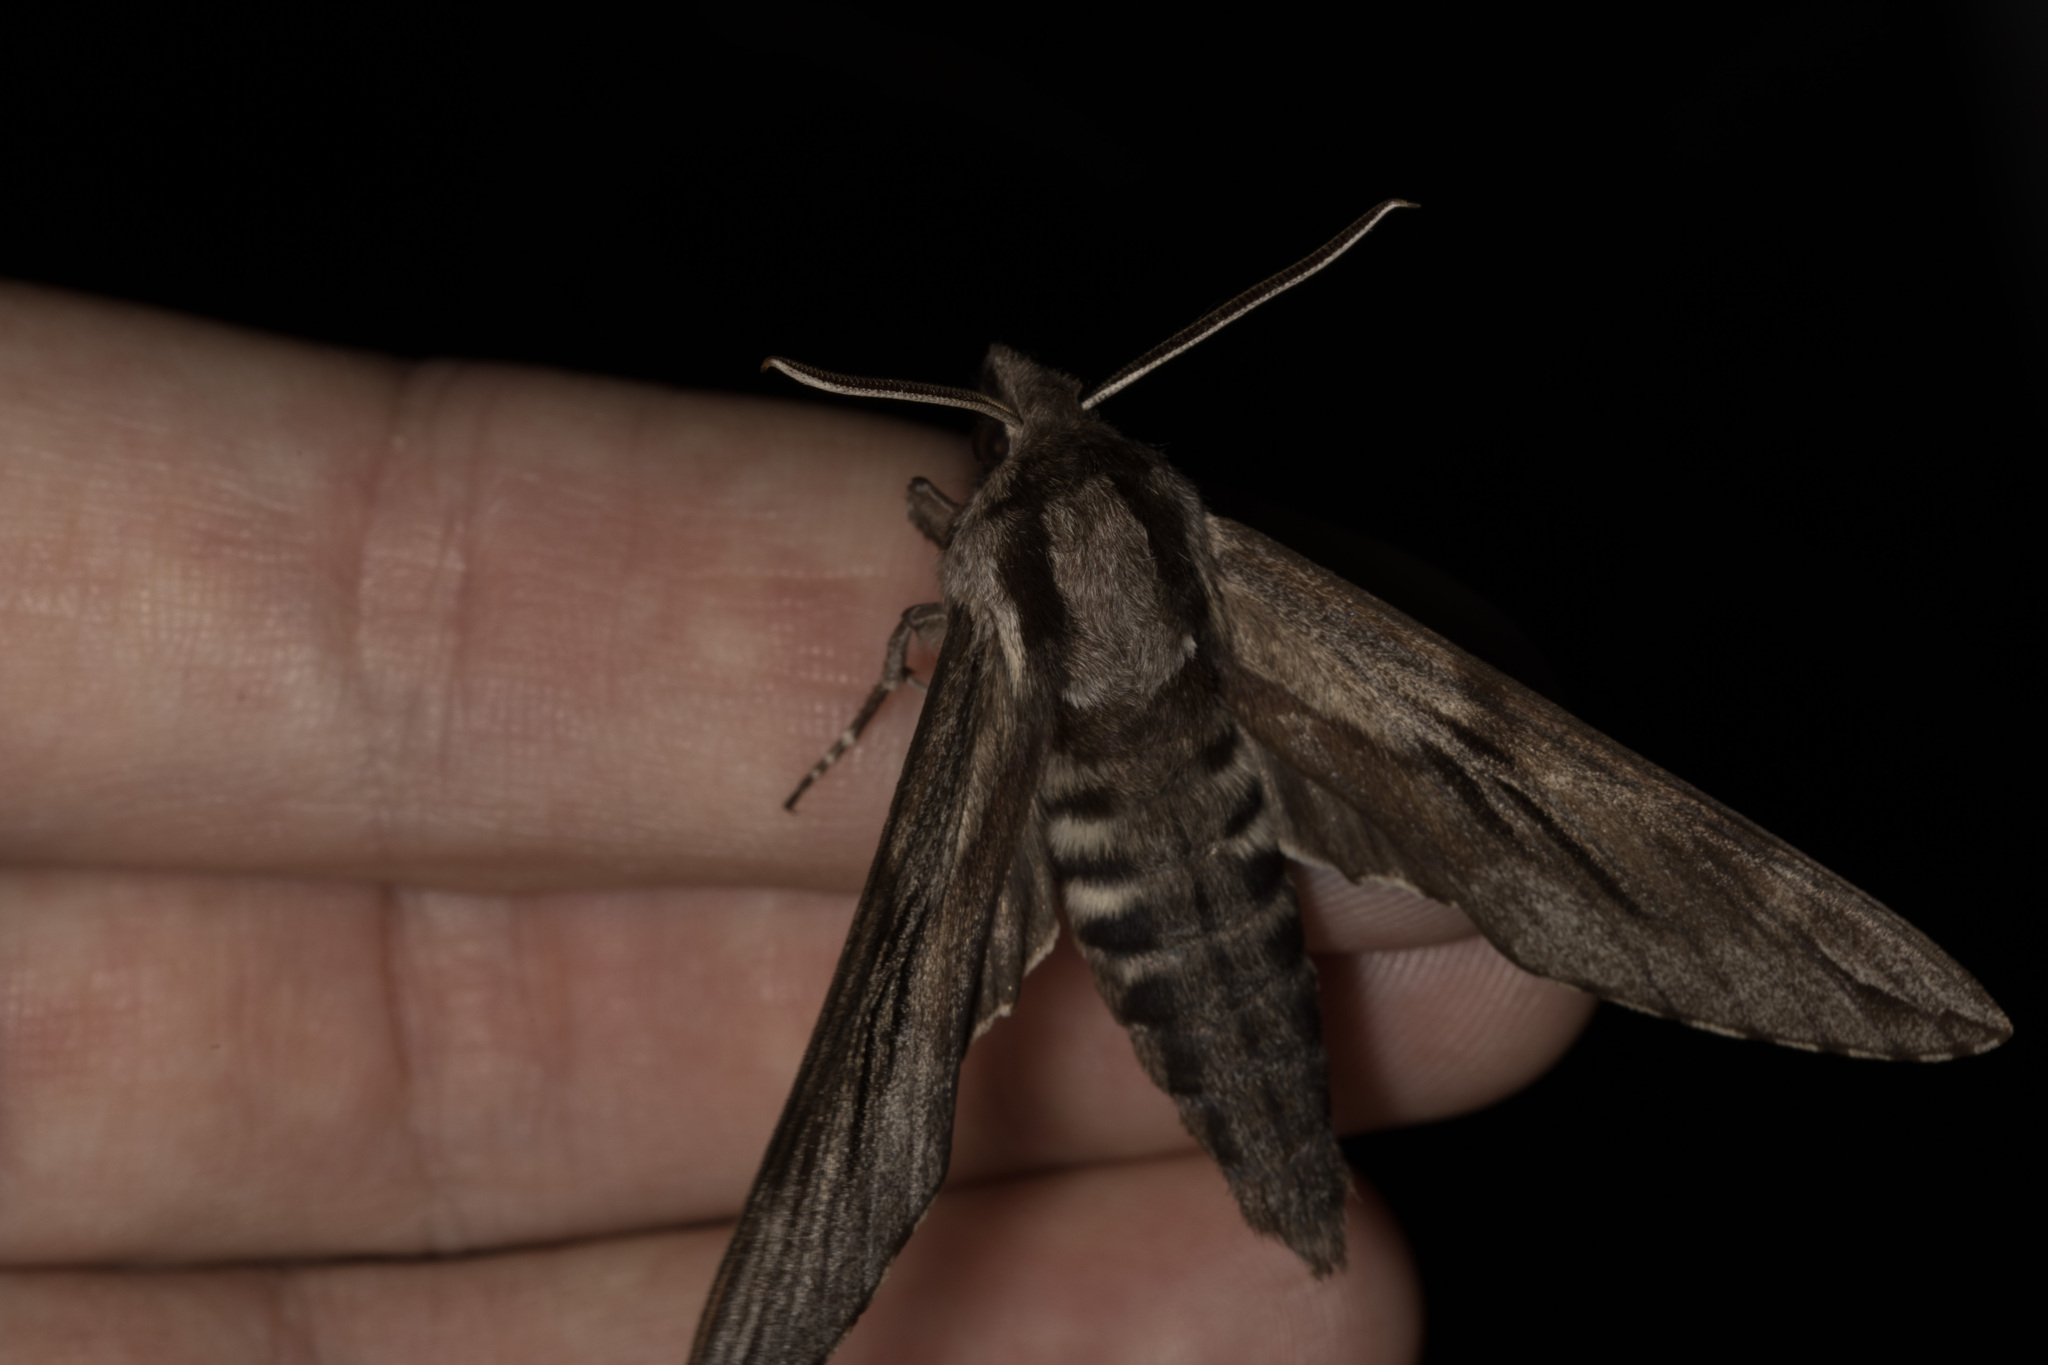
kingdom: Animalia
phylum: Arthropoda
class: Insecta
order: Lepidoptera
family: Sphingidae
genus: Sphinx
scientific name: Sphinx pinastri
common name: Pine hawk-moth
